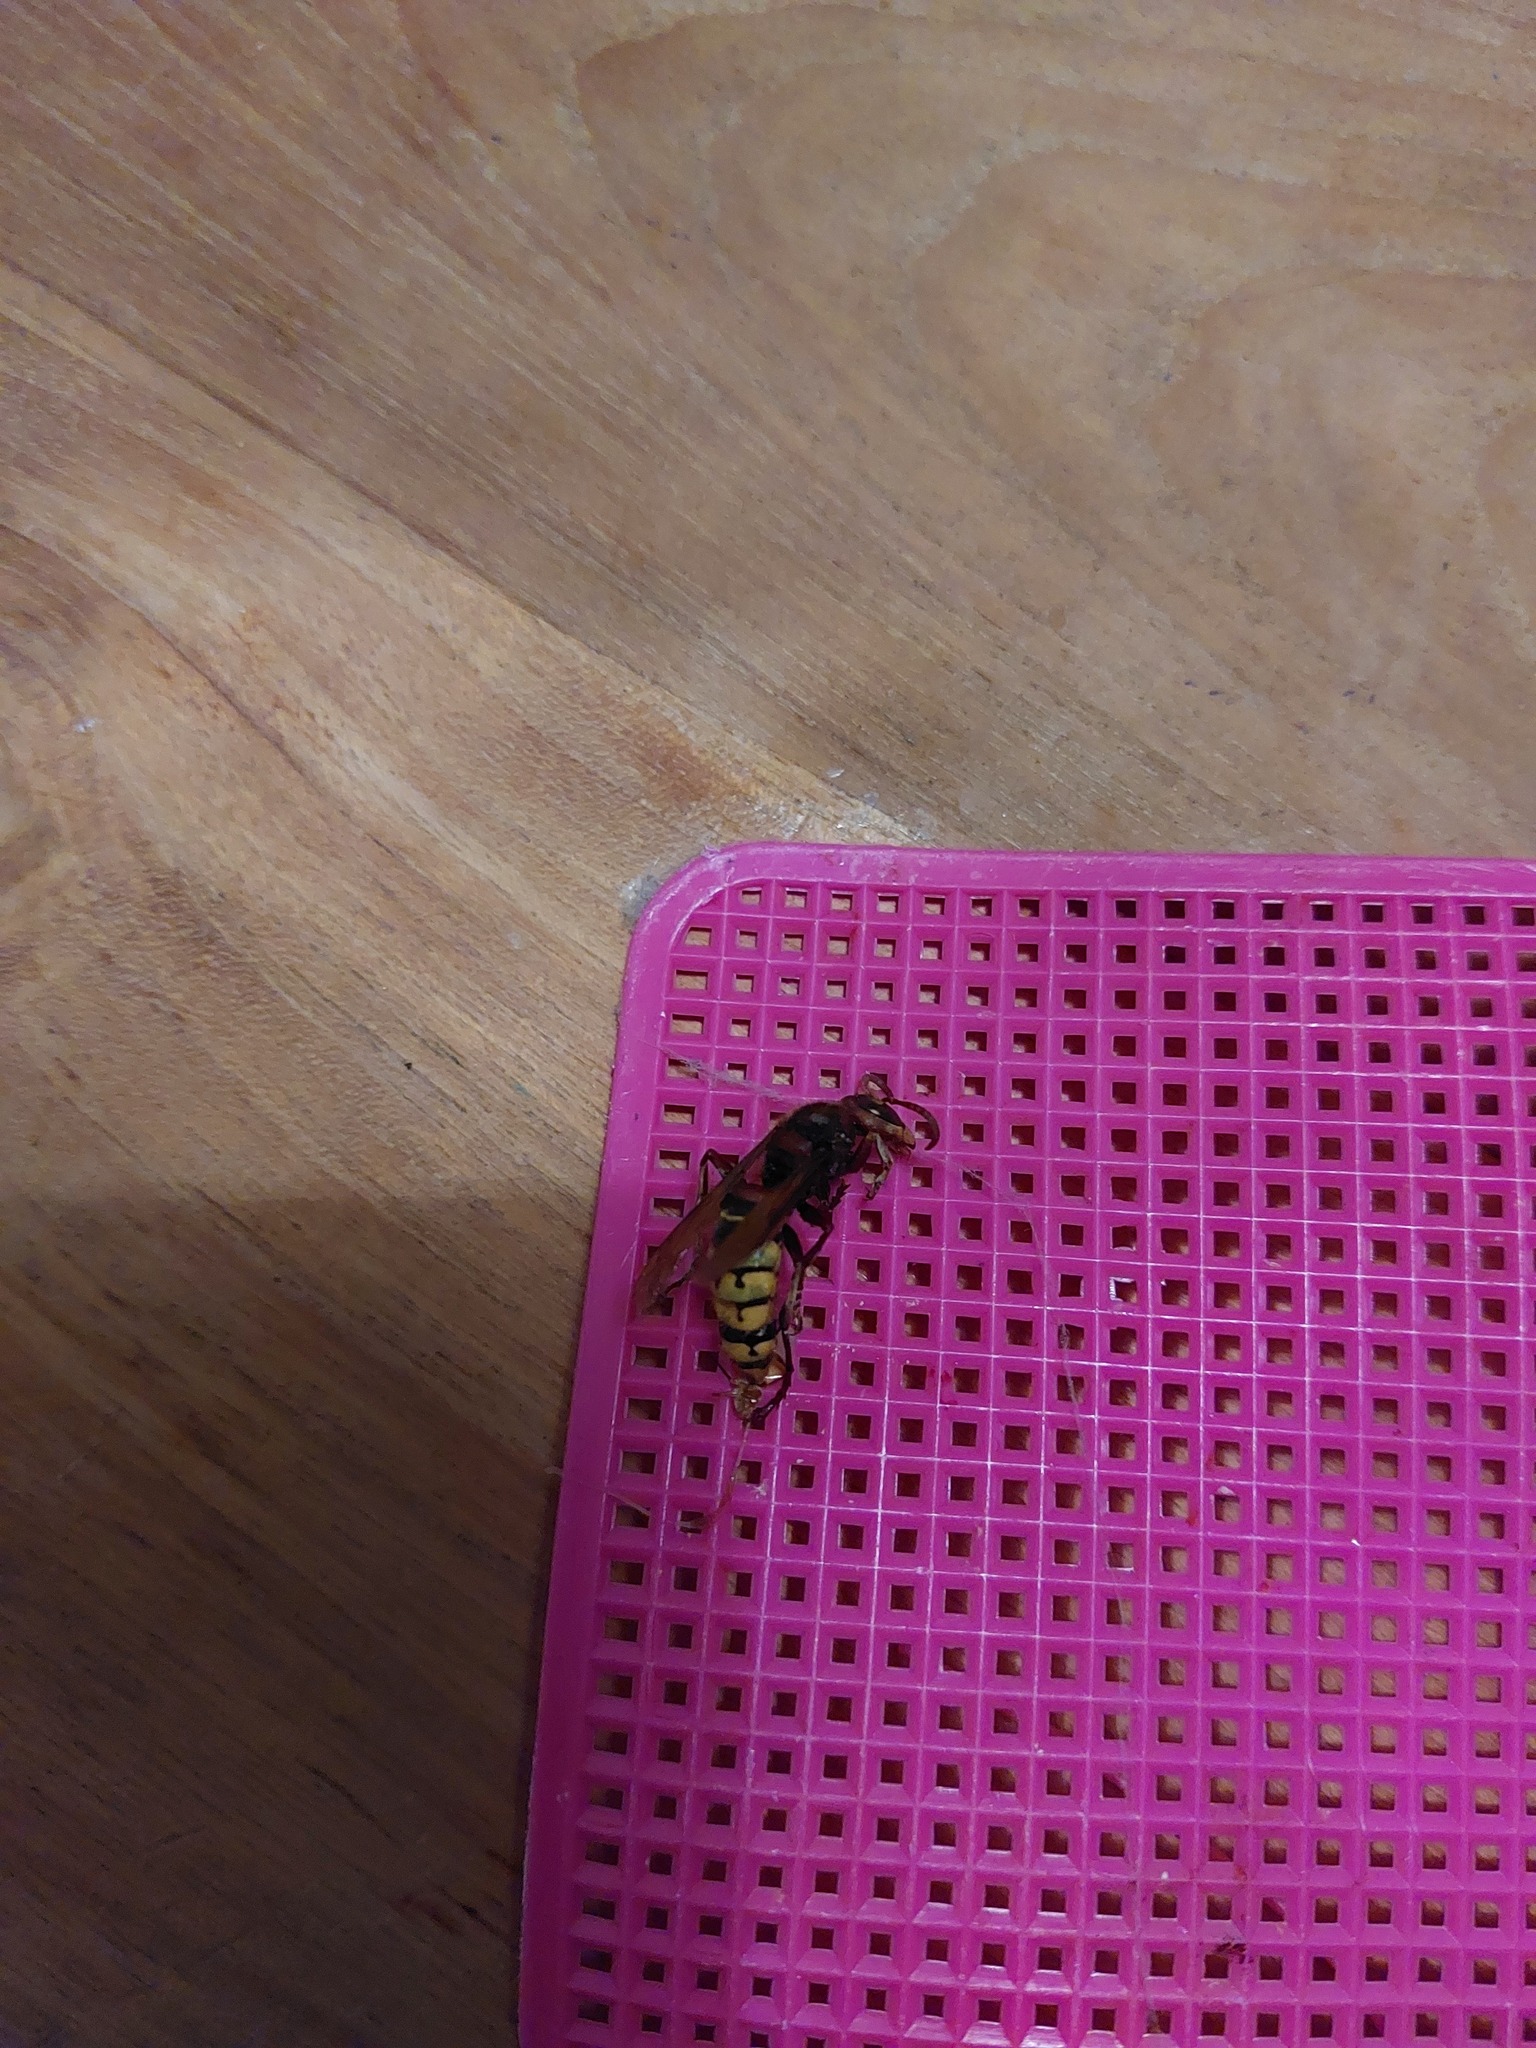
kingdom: Animalia
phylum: Arthropoda
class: Insecta
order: Hymenoptera
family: Vespidae
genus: Vespa
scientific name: Vespa crabro
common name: Hornet
